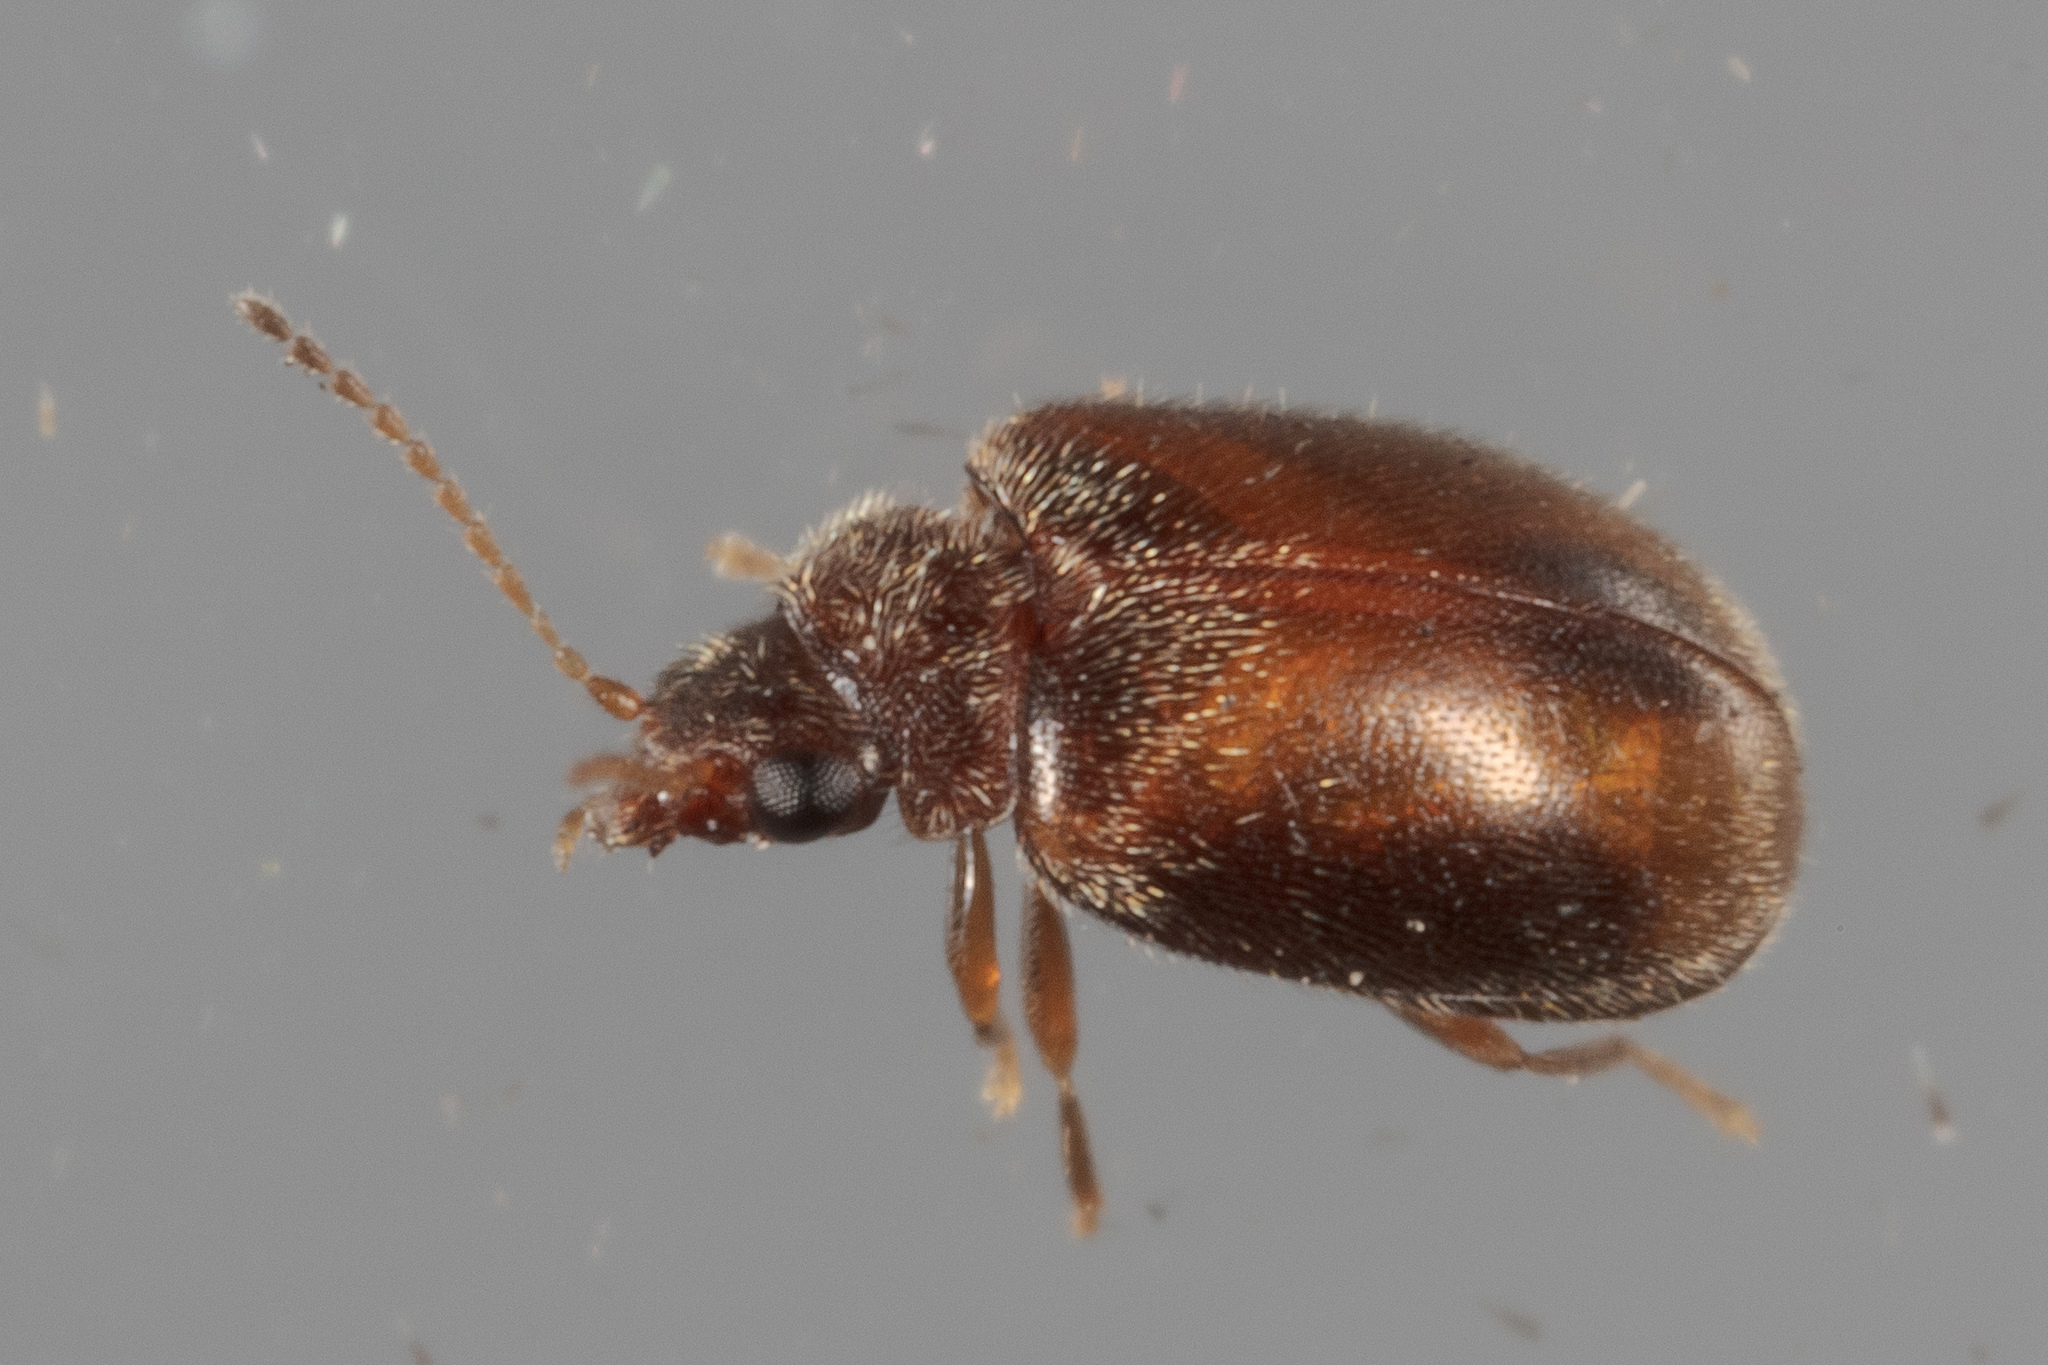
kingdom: Animalia
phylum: Arthropoda
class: Insecta
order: Coleoptera
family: Scirtidae
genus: Contacyphon
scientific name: Contacyphon
